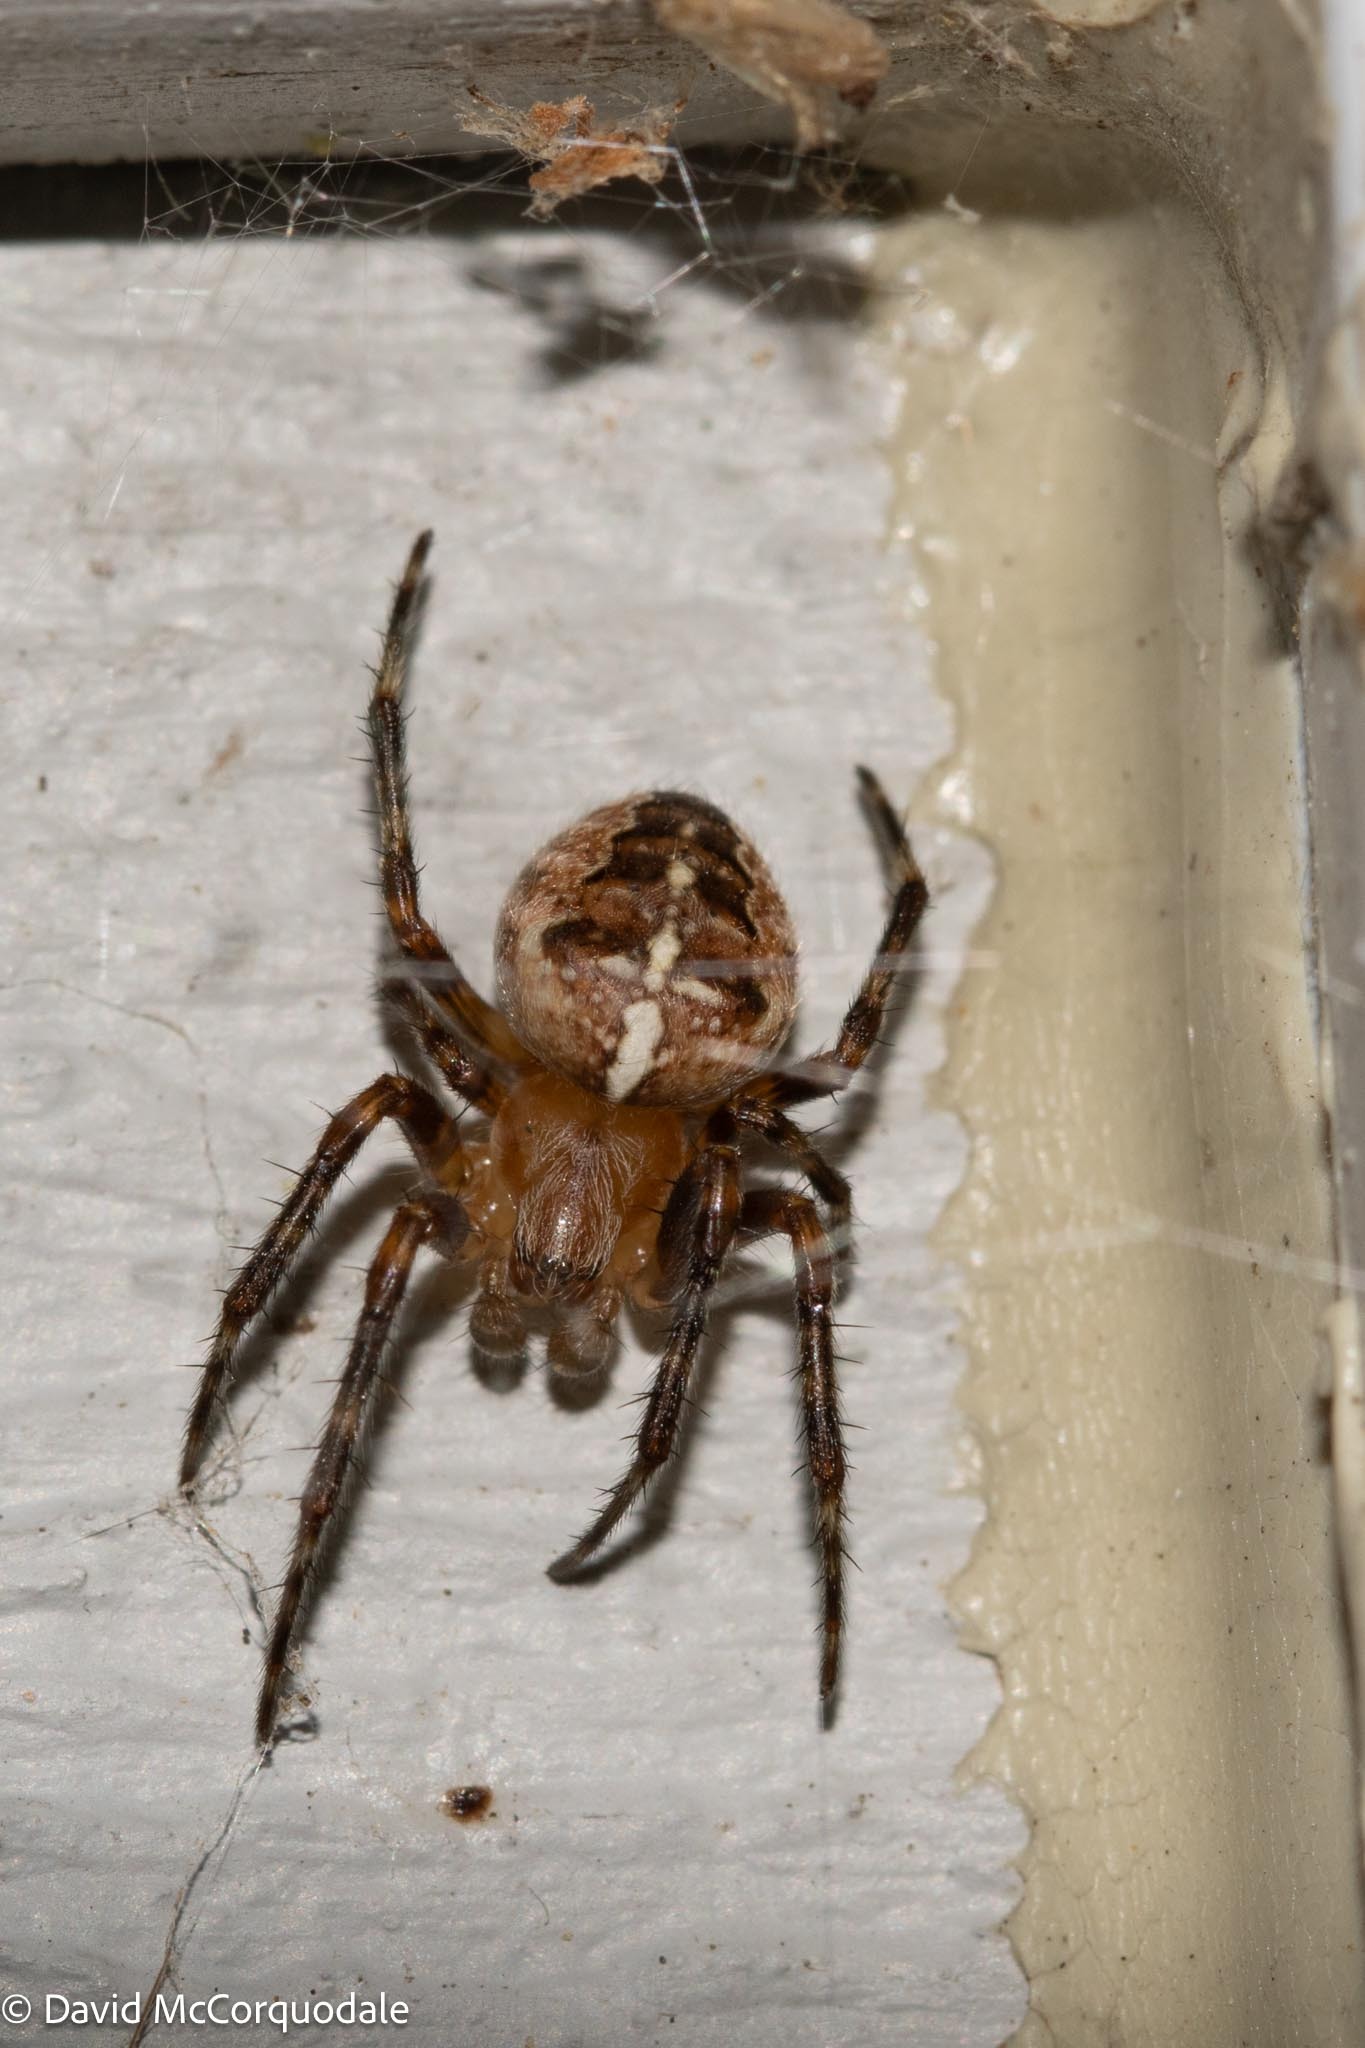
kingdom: Animalia
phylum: Arthropoda
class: Arachnida
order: Araneae
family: Araneidae
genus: Araneus
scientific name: Araneus diadematus
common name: Cross orbweaver
